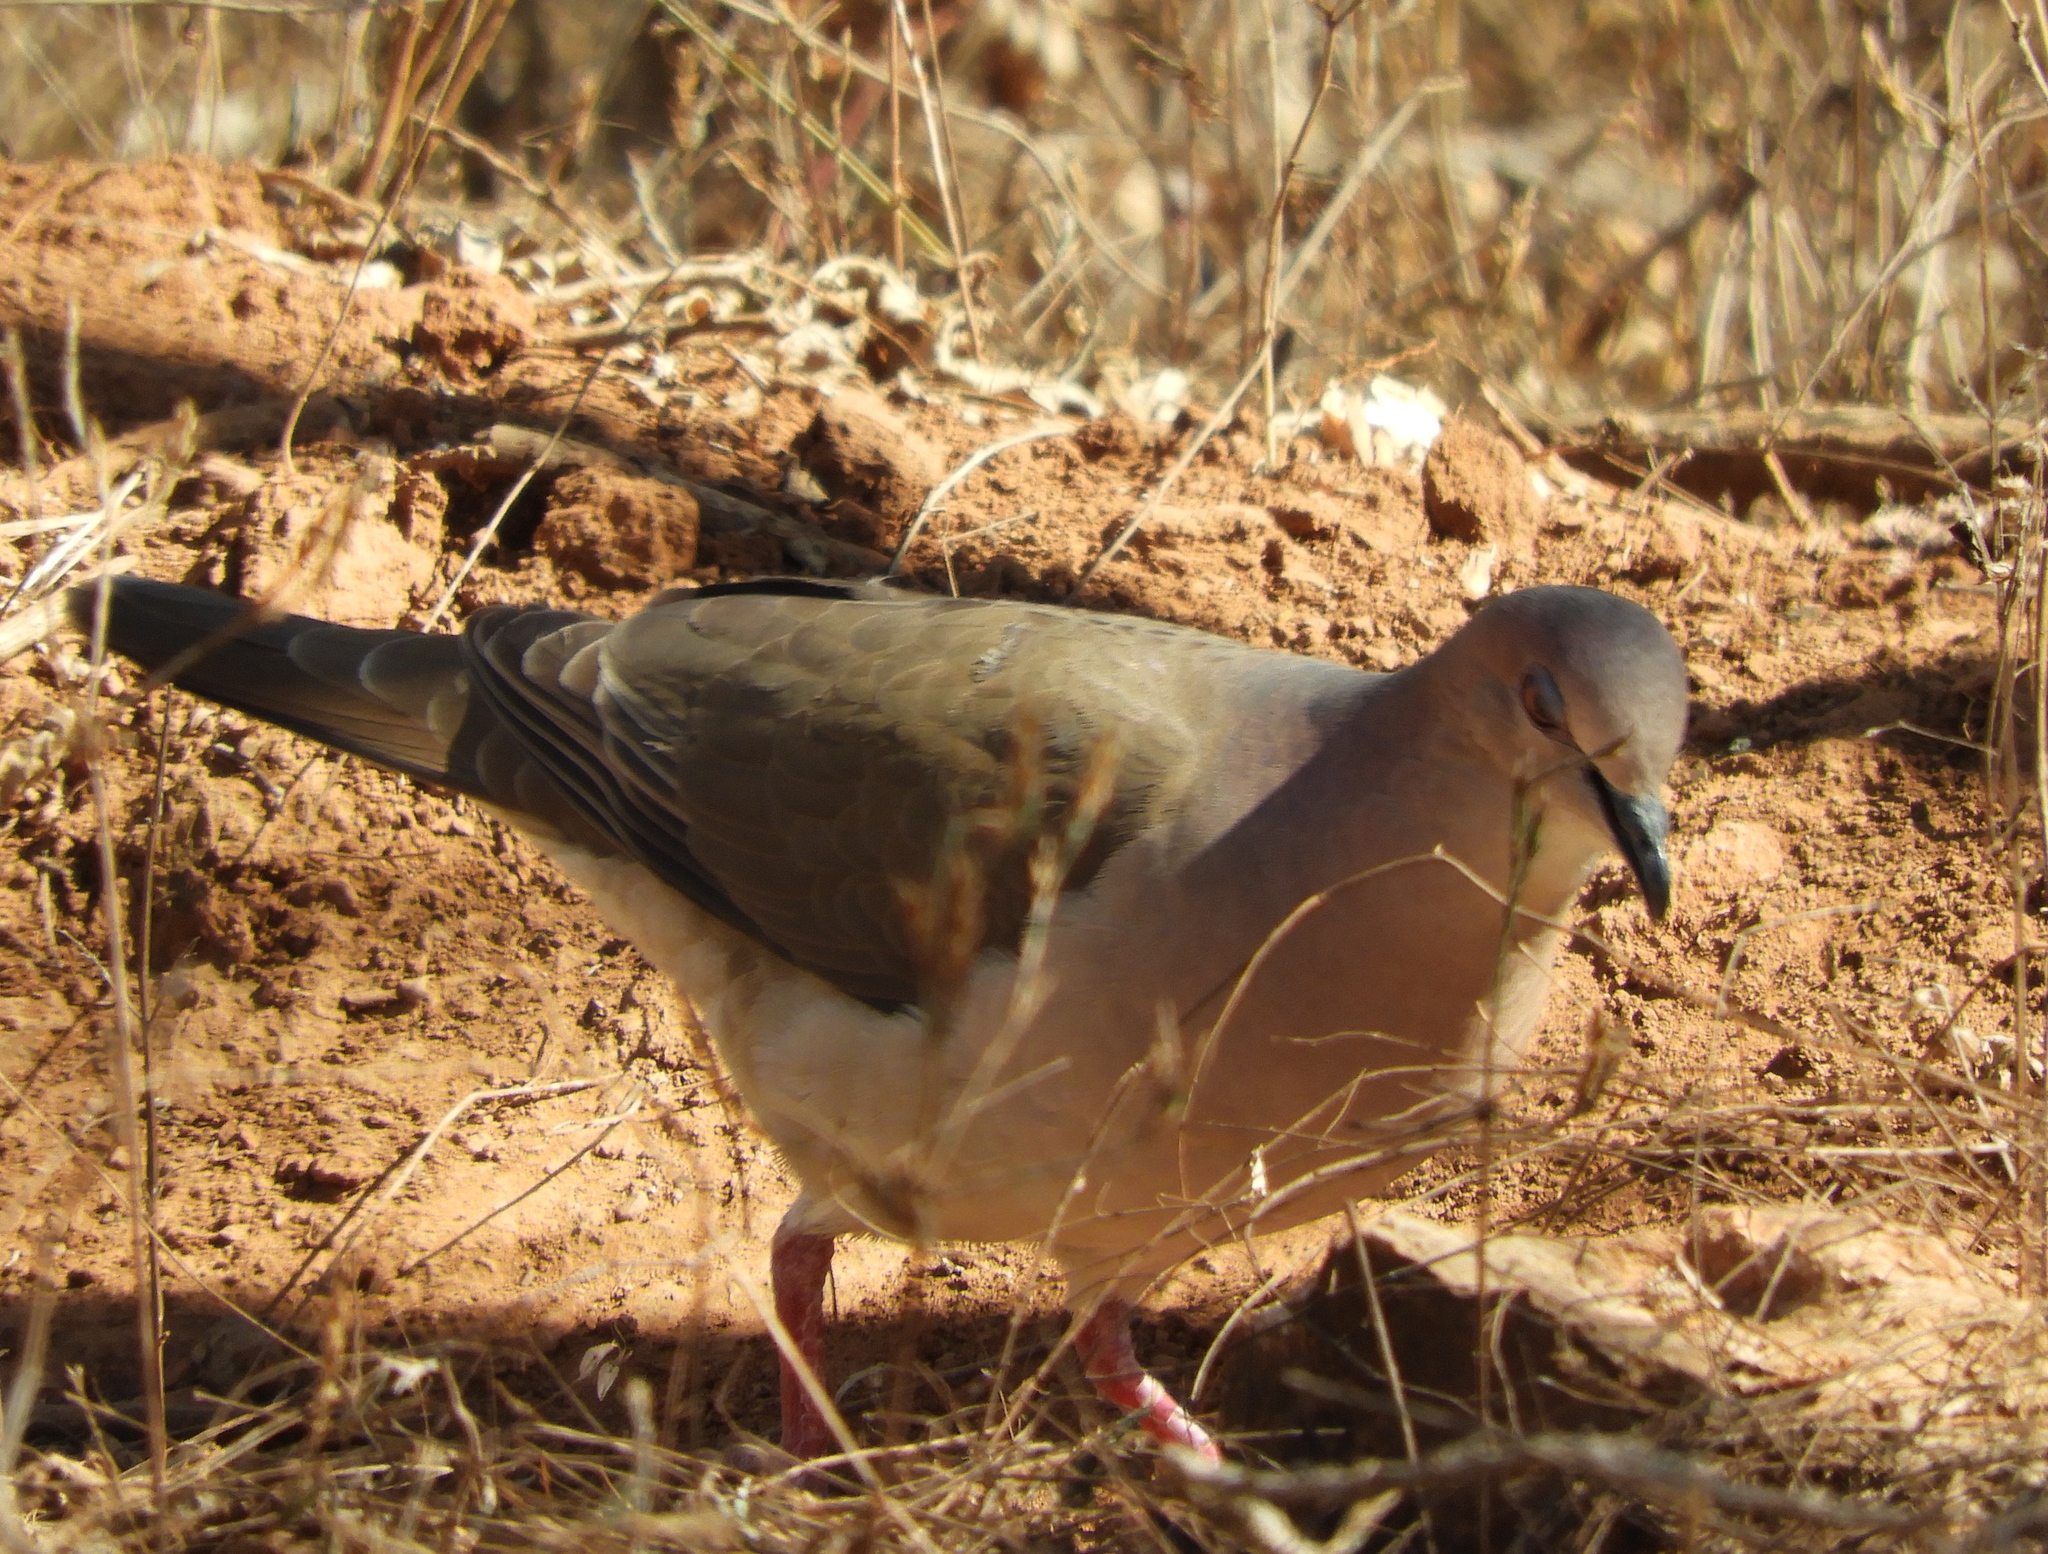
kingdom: Animalia
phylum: Chordata
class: Aves
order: Columbiformes
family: Columbidae
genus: Leptotila
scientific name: Leptotila verreauxi
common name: White-tipped dove
